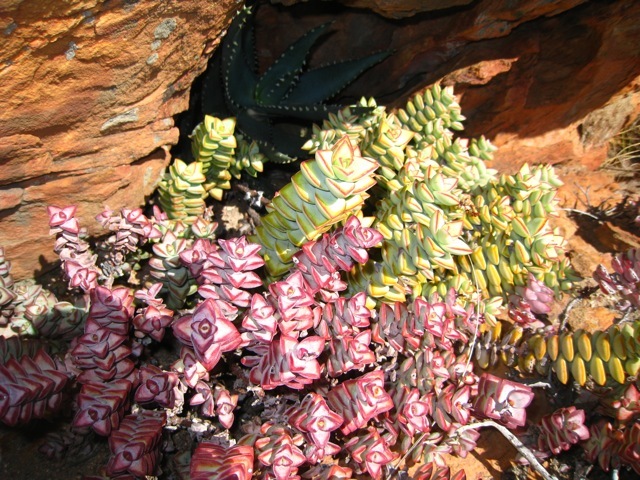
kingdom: Plantae
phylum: Tracheophyta
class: Magnoliopsida
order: Saxifragales
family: Crassulaceae
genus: Crassula
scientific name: Crassula rupestris
